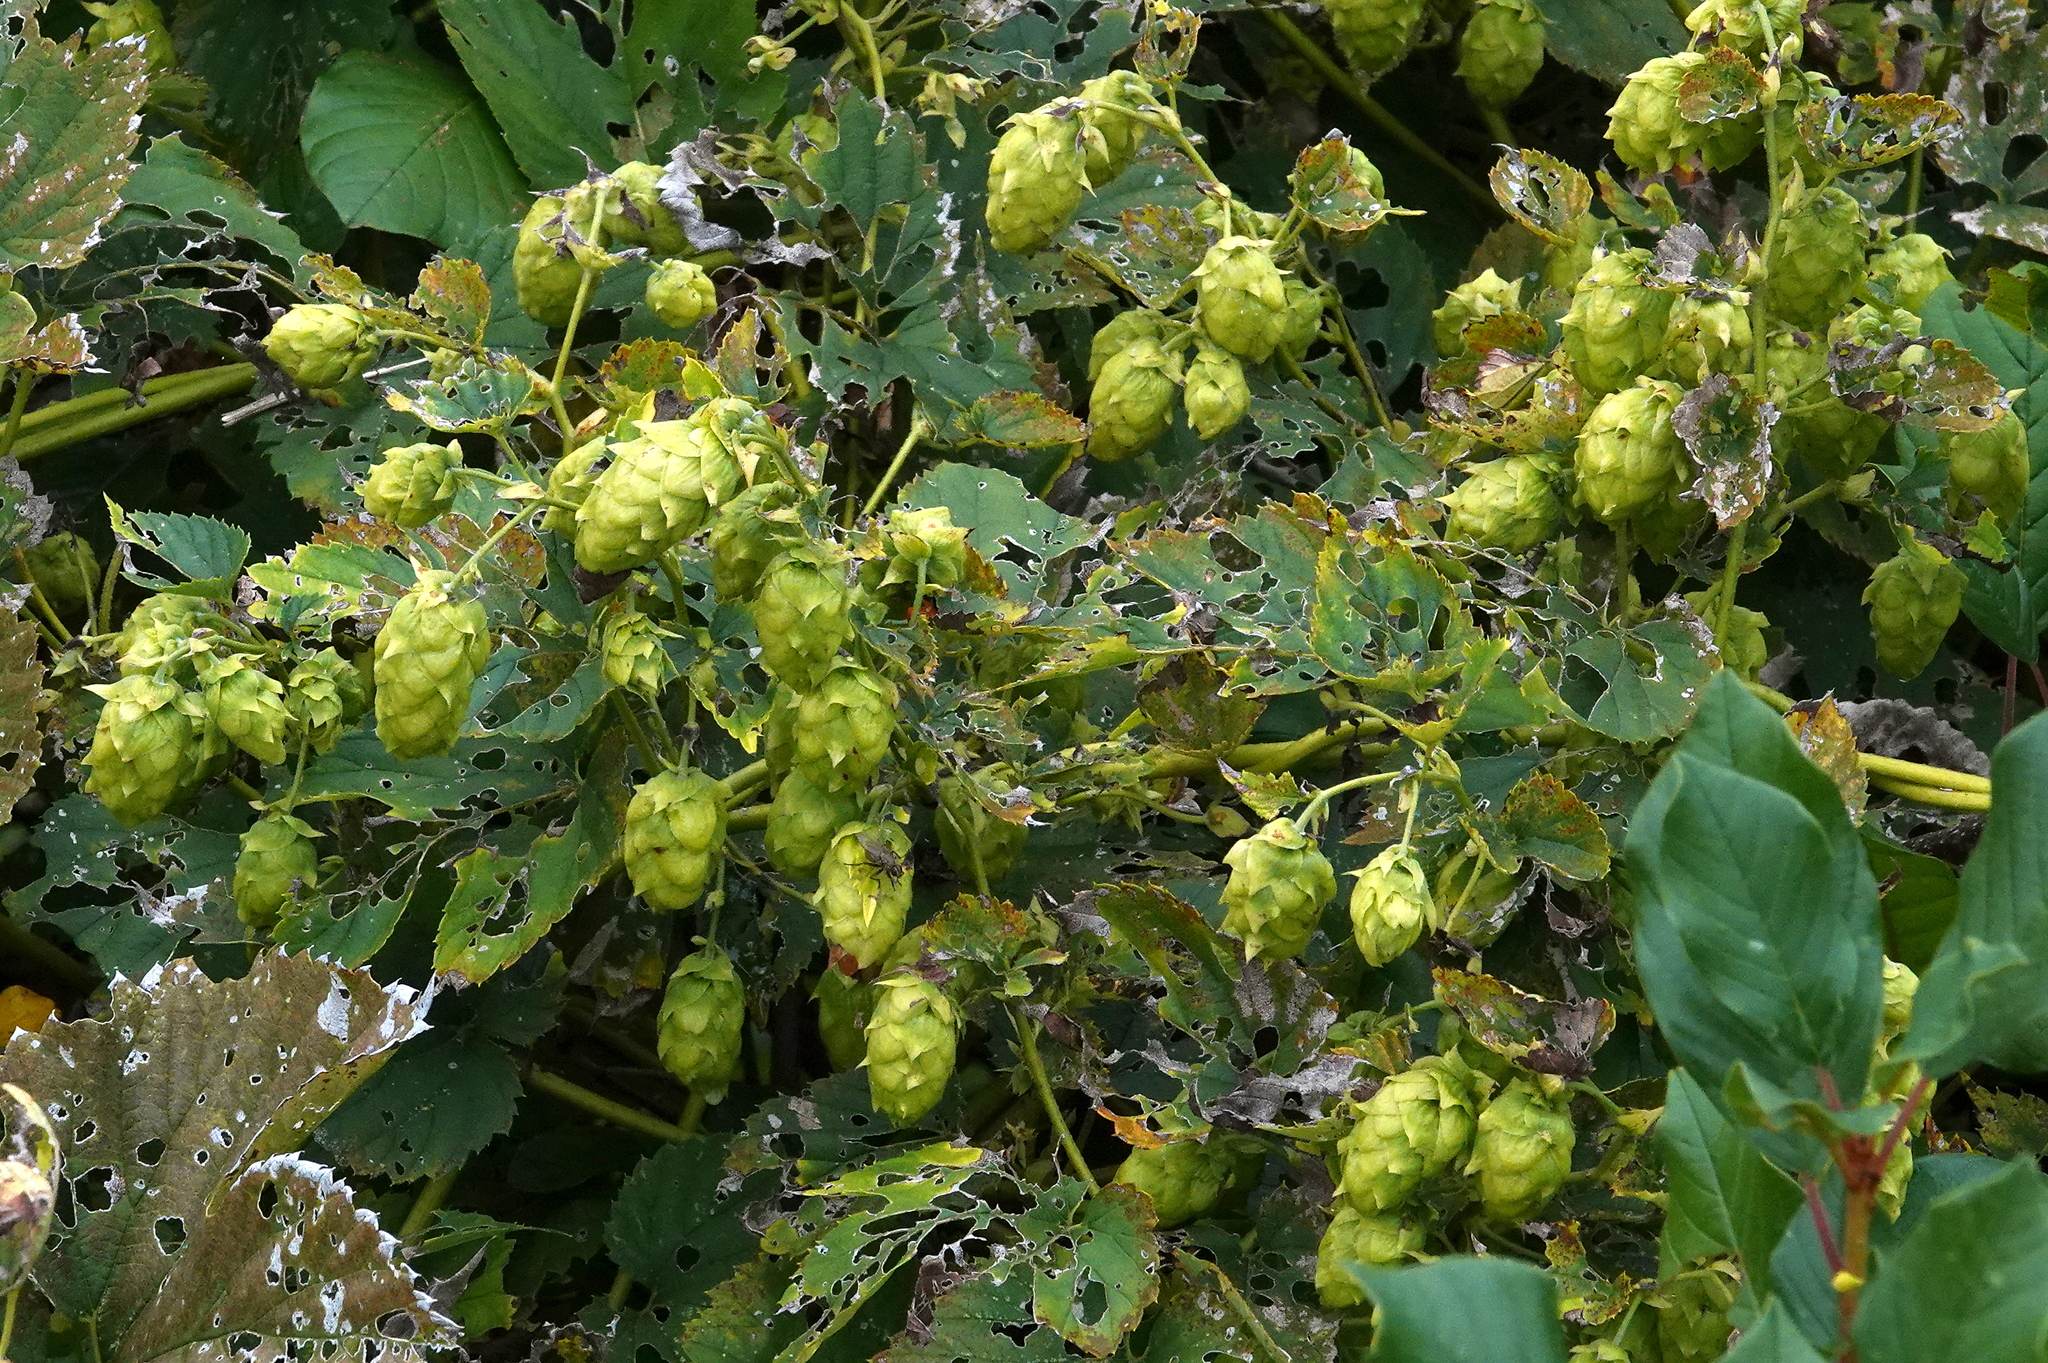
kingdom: Plantae
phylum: Tracheophyta
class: Magnoliopsida
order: Rosales
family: Cannabaceae
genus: Humulus
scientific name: Humulus lupulus
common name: Hop
